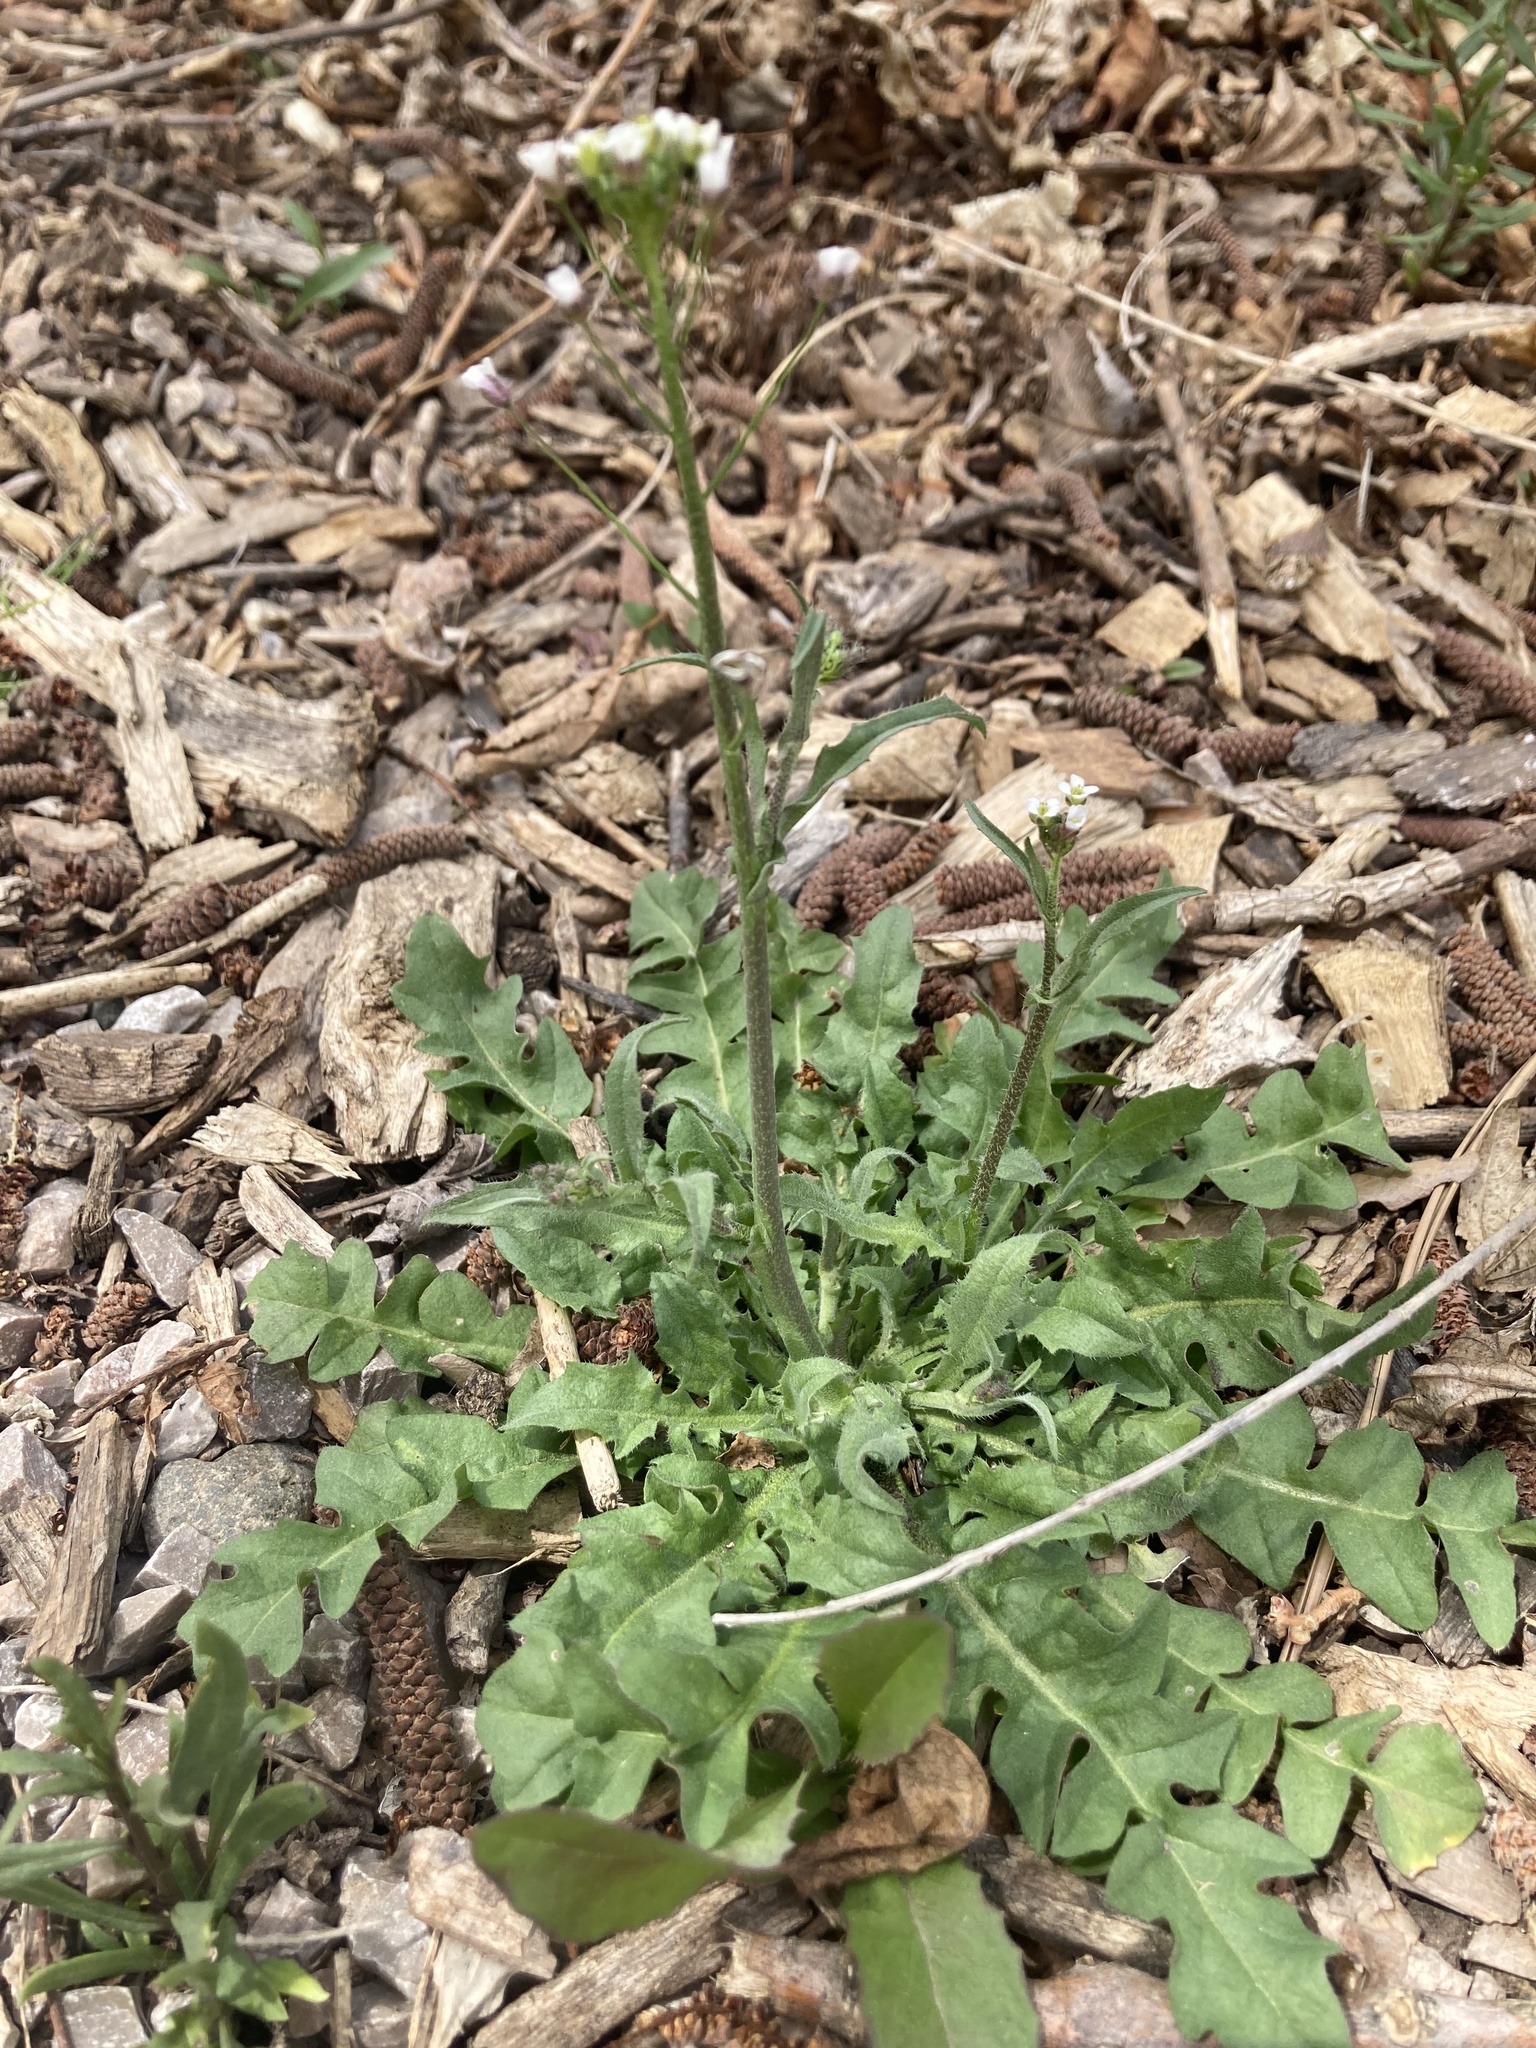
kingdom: Plantae
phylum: Tracheophyta
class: Magnoliopsida
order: Brassicales
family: Brassicaceae
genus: Capsella
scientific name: Capsella bursa-pastoris
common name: Shepherd's purse
